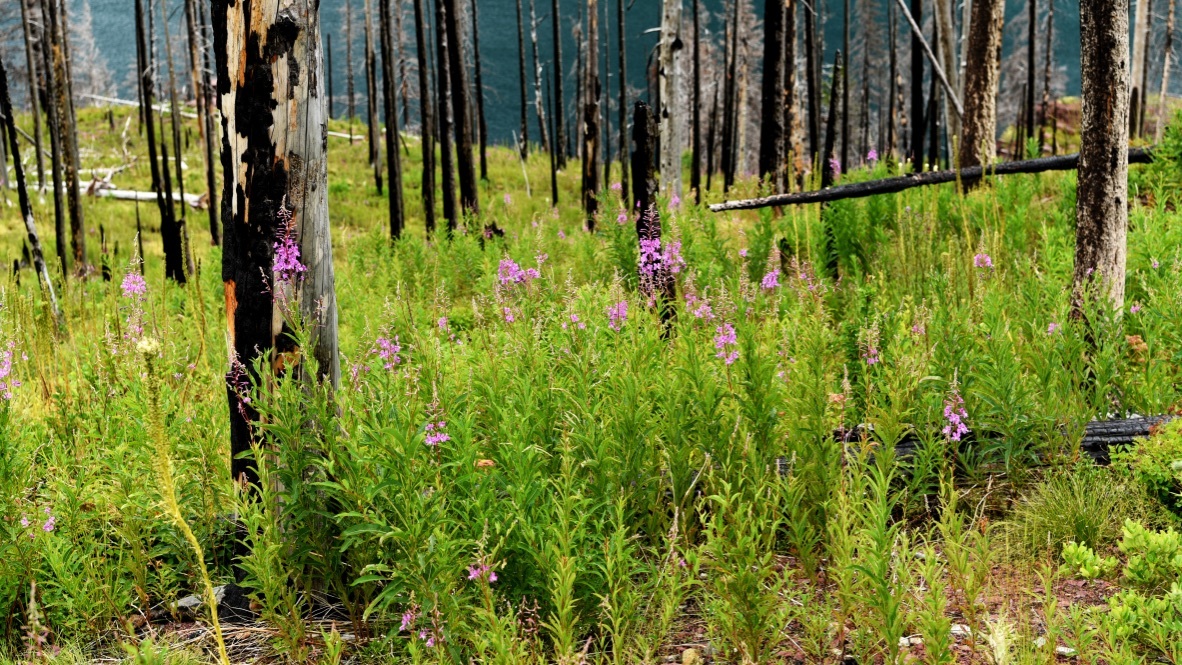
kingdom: Plantae
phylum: Tracheophyta
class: Magnoliopsida
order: Myrtales
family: Onagraceae
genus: Chamaenerion
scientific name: Chamaenerion angustifolium
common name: Fireweed
